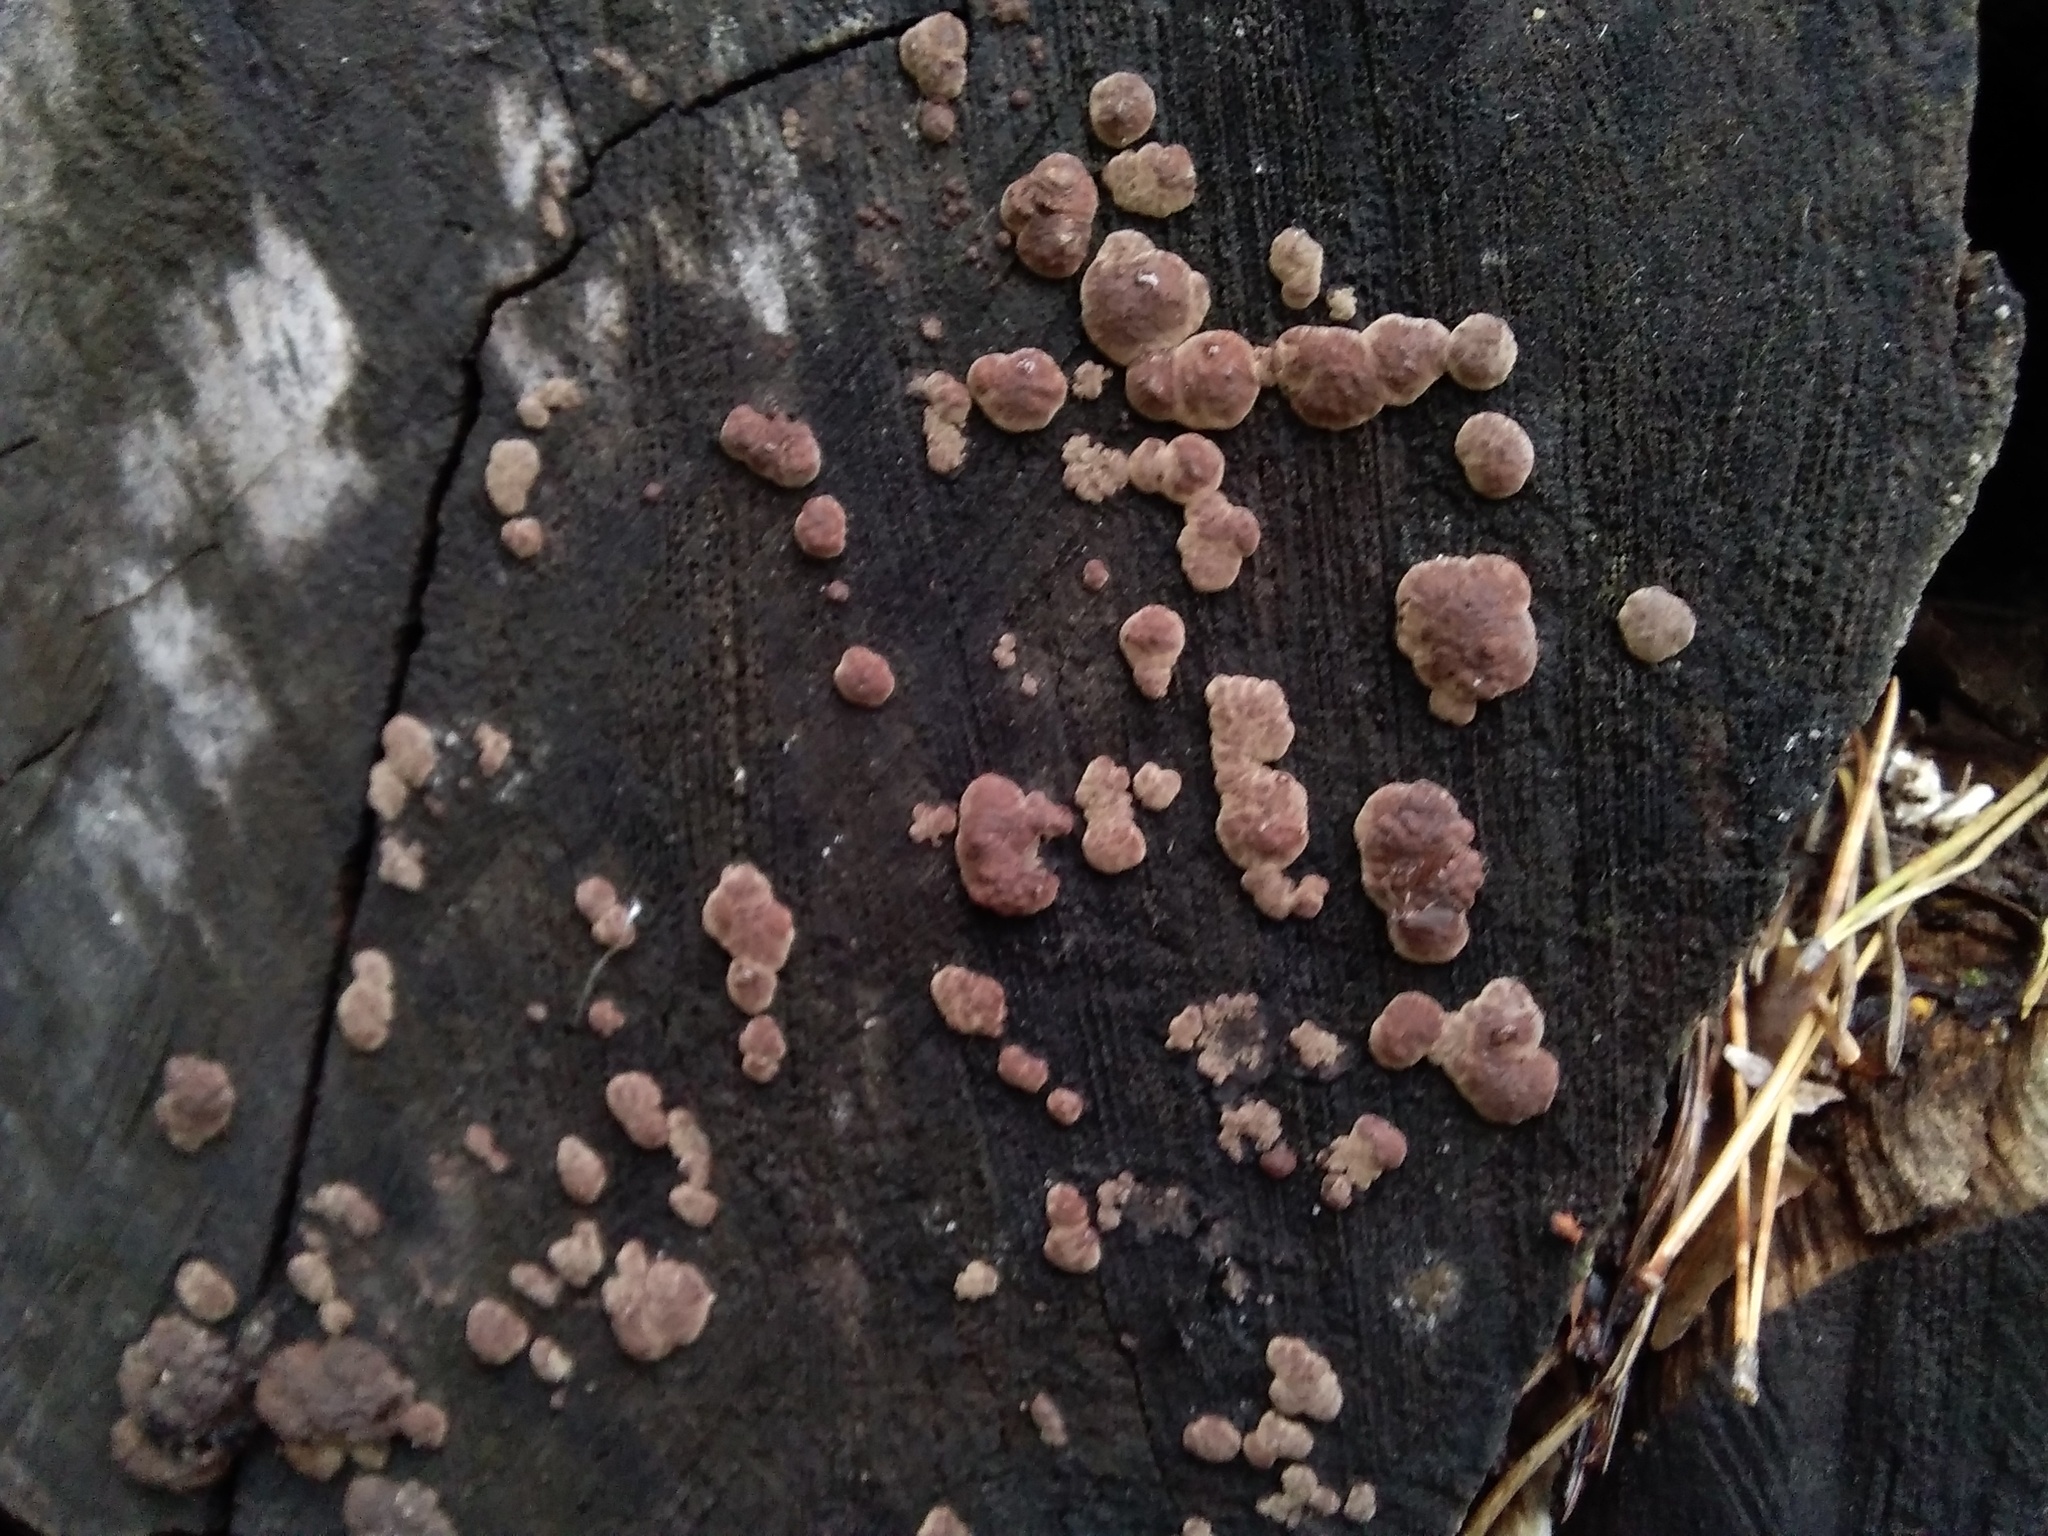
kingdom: Fungi
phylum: Ascomycota
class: Sordariomycetes
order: Xylariales
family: Hypoxylaceae
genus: Jackrogersella
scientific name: Jackrogersella multiformis
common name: Birch woodwart
